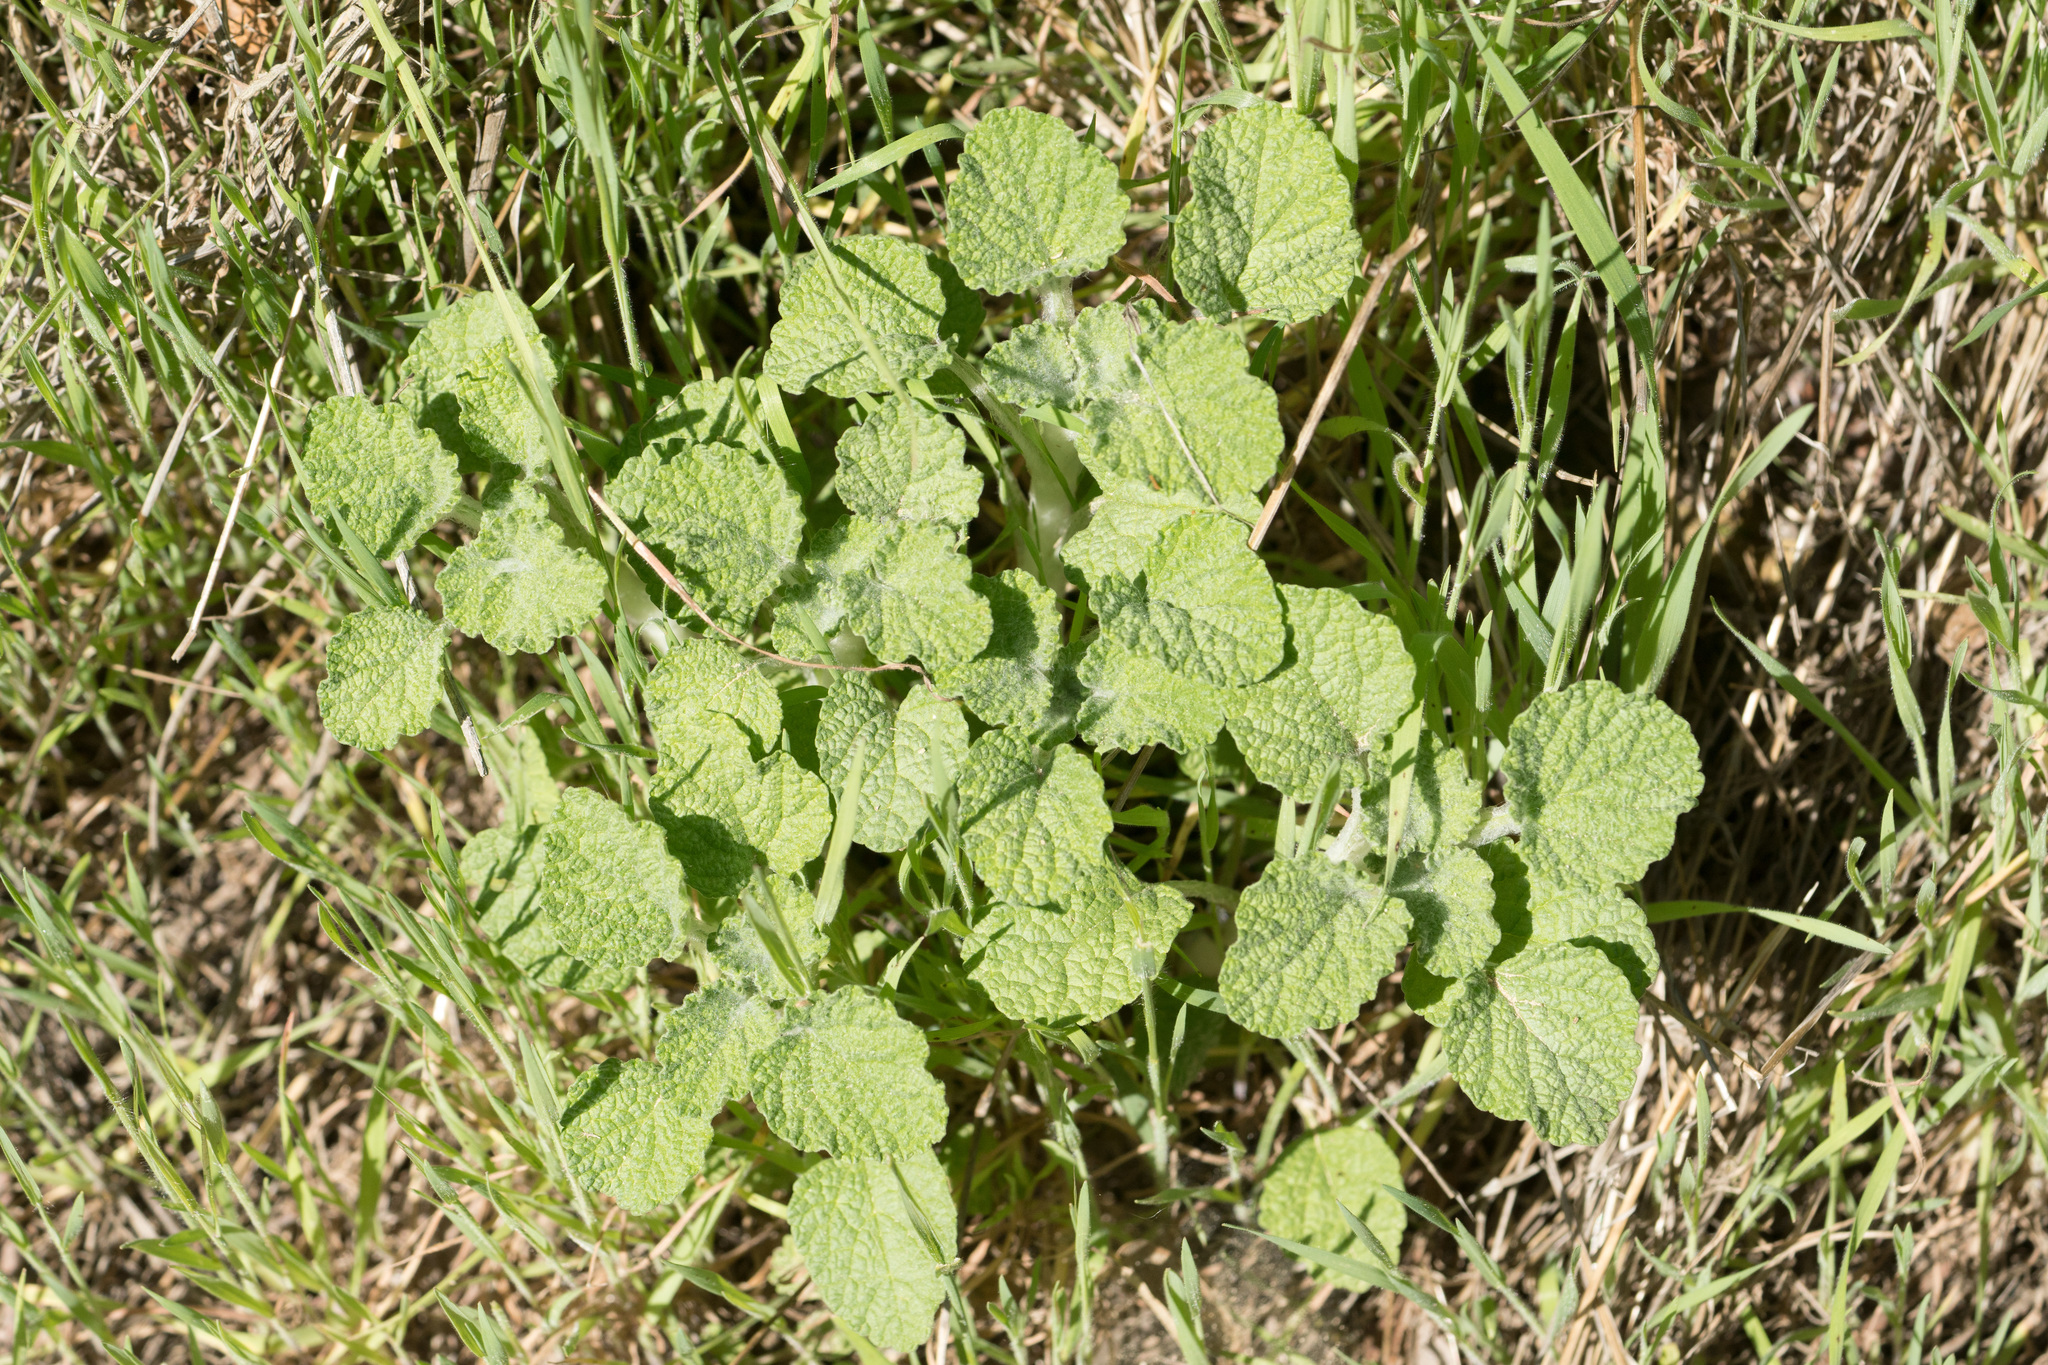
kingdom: Plantae
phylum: Tracheophyta
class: Magnoliopsida
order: Lamiales
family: Lamiaceae
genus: Marrubium
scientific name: Marrubium vulgare
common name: Horehound
